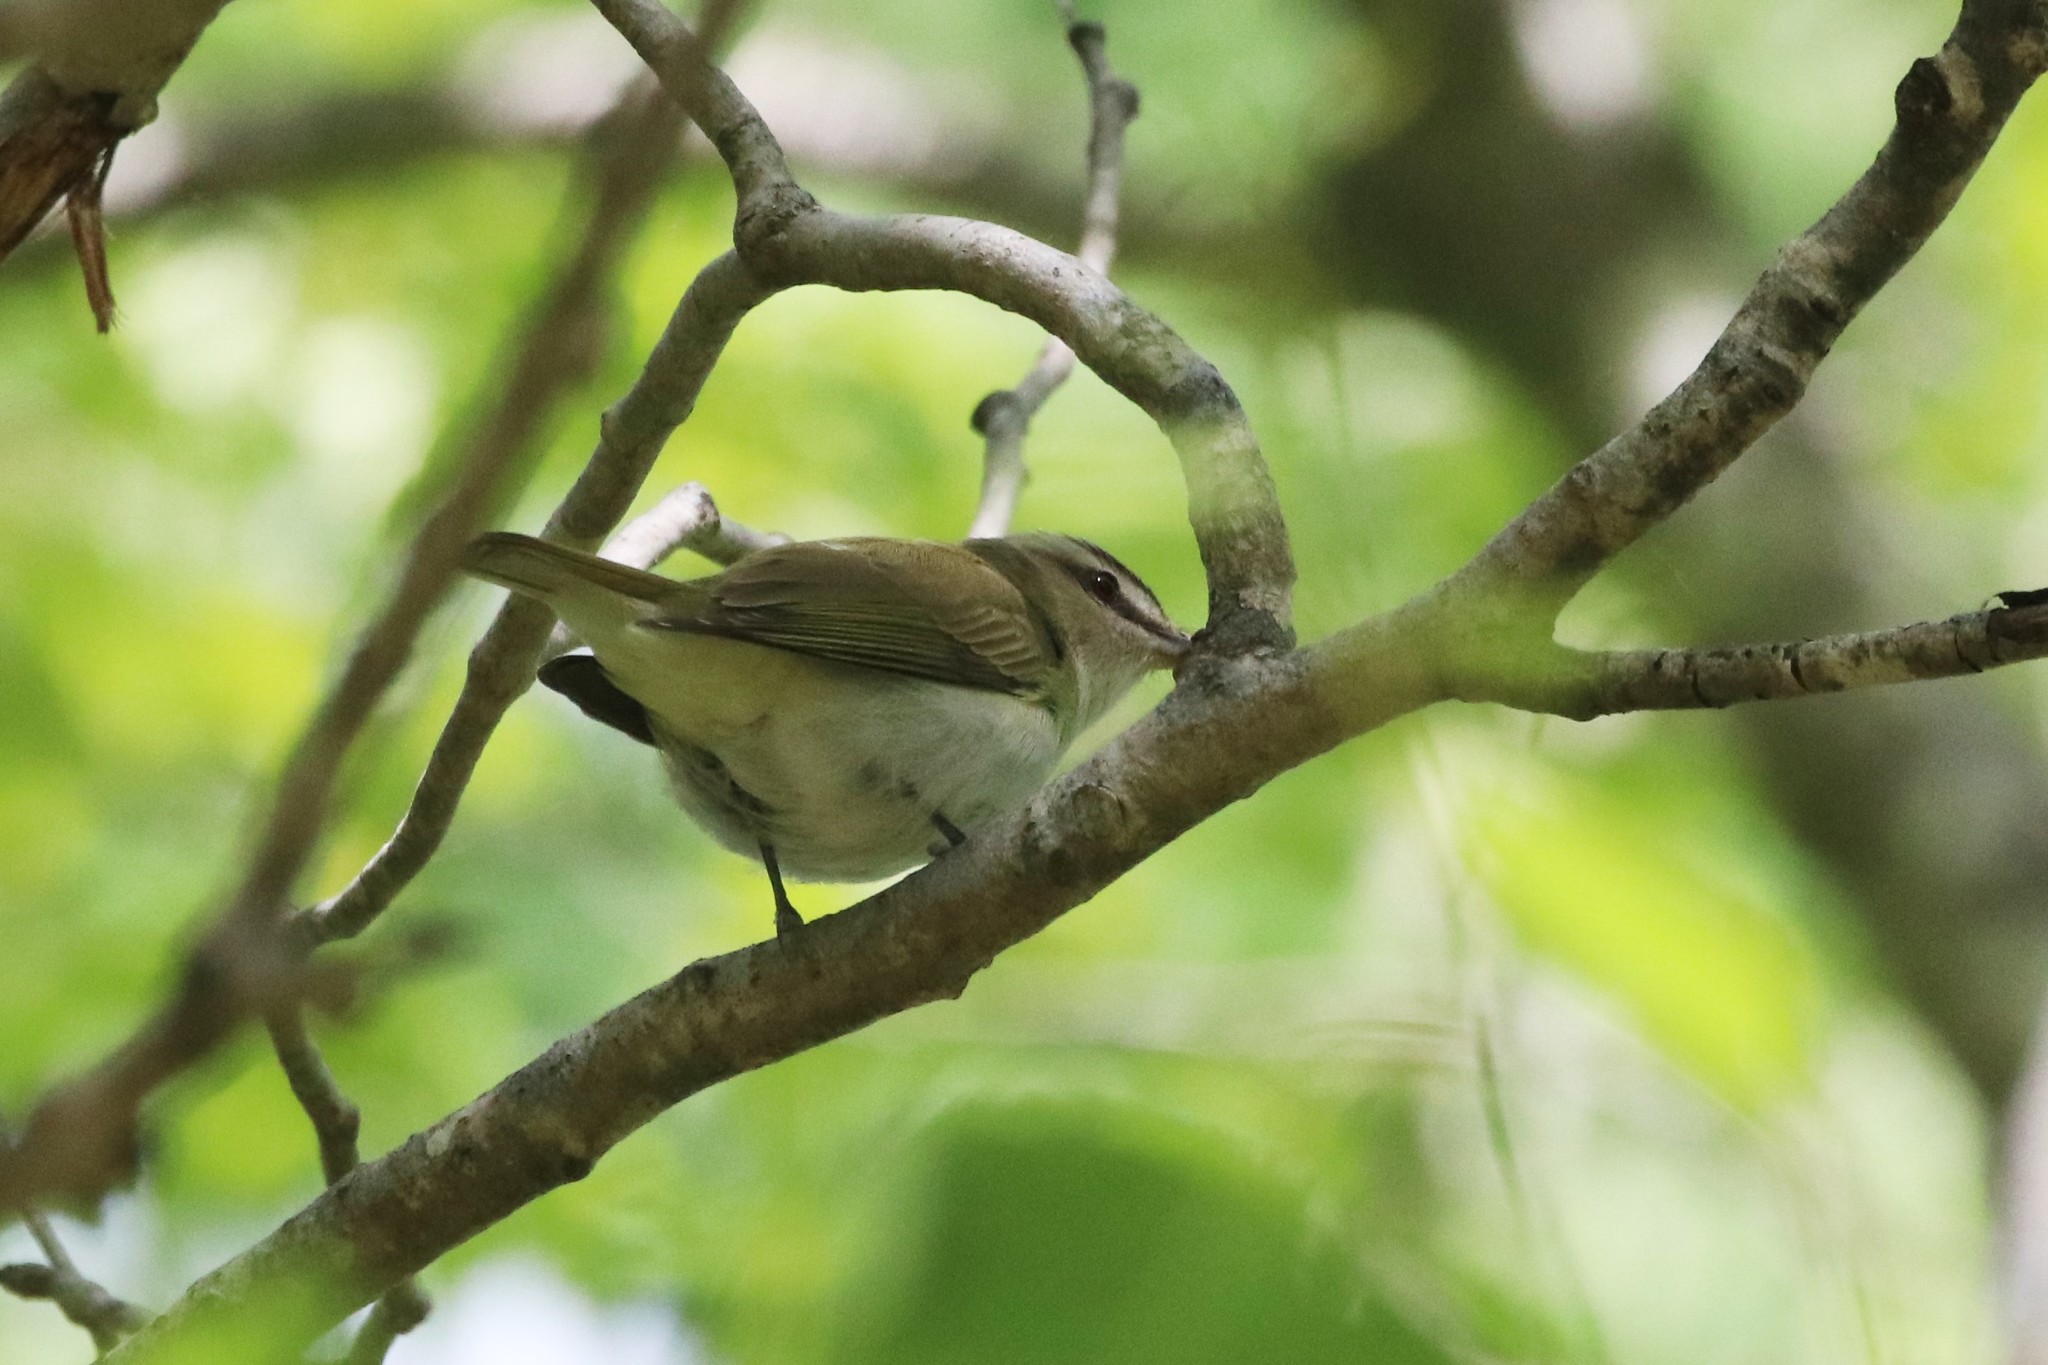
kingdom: Animalia
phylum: Chordata
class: Aves
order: Passeriformes
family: Vireonidae
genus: Vireo
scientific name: Vireo olivaceus
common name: Red-eyed vireo
